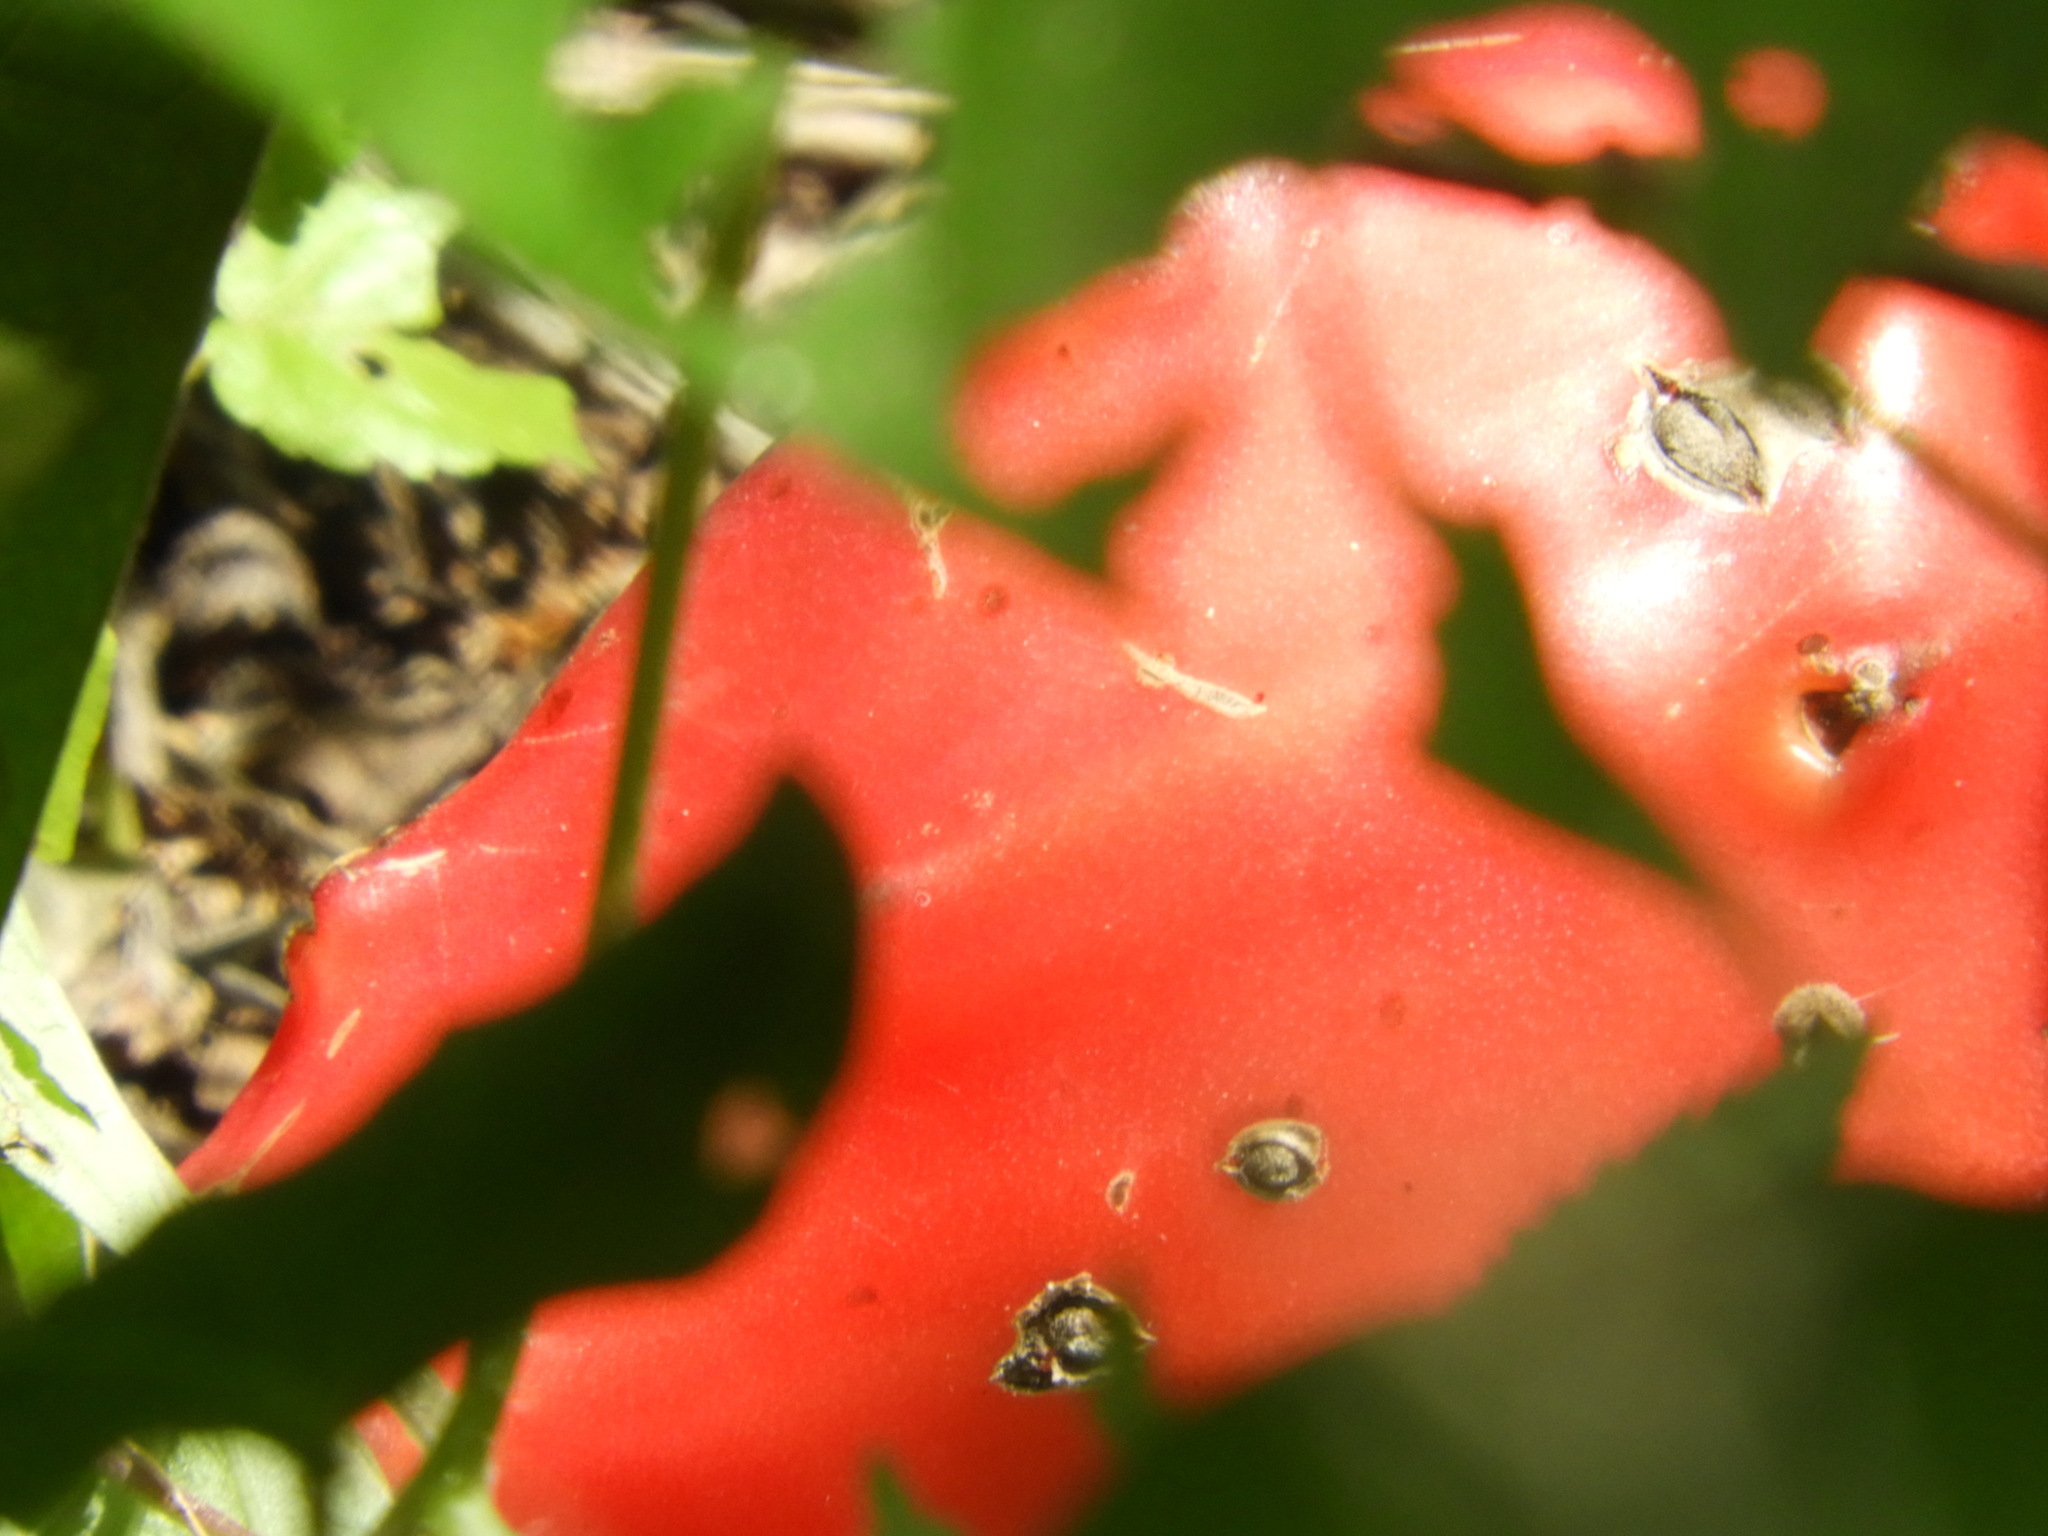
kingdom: Plantae
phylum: Tracheophyta
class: Magnoliopsida
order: Caryophyllales
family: Cactaceae
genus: Acanthocereus
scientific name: Acanthocereus tetragonus
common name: Triangle cactus
